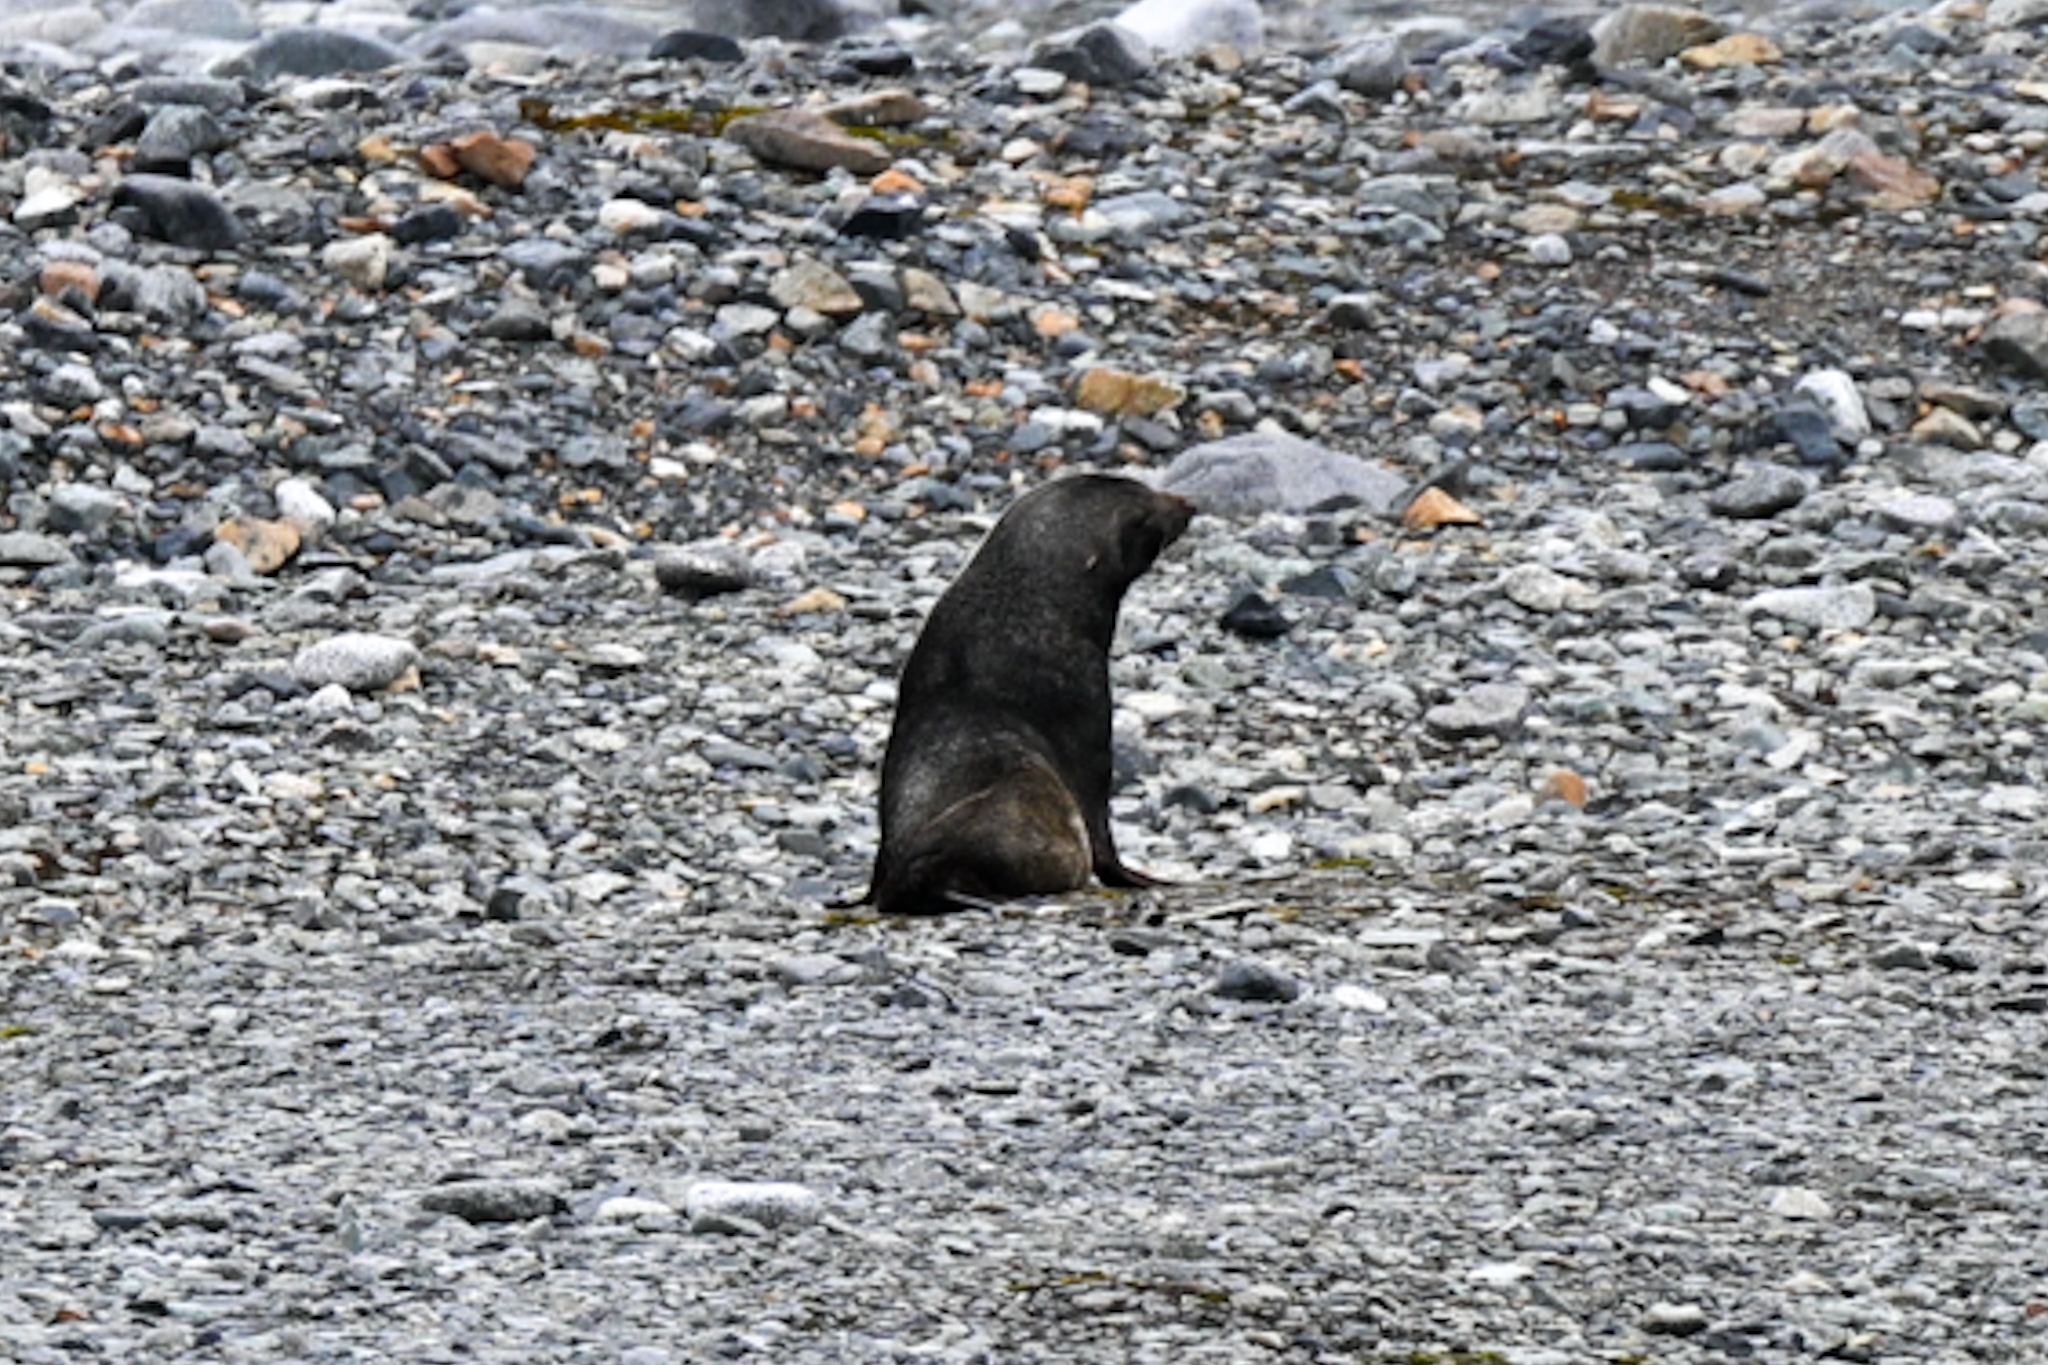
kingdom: Animalia
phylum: Chordata
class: Mammalia
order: Carnivora
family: Otariidae
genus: Arctocephalus
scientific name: Arctocephalus gazella
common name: Antarctic fur seal
